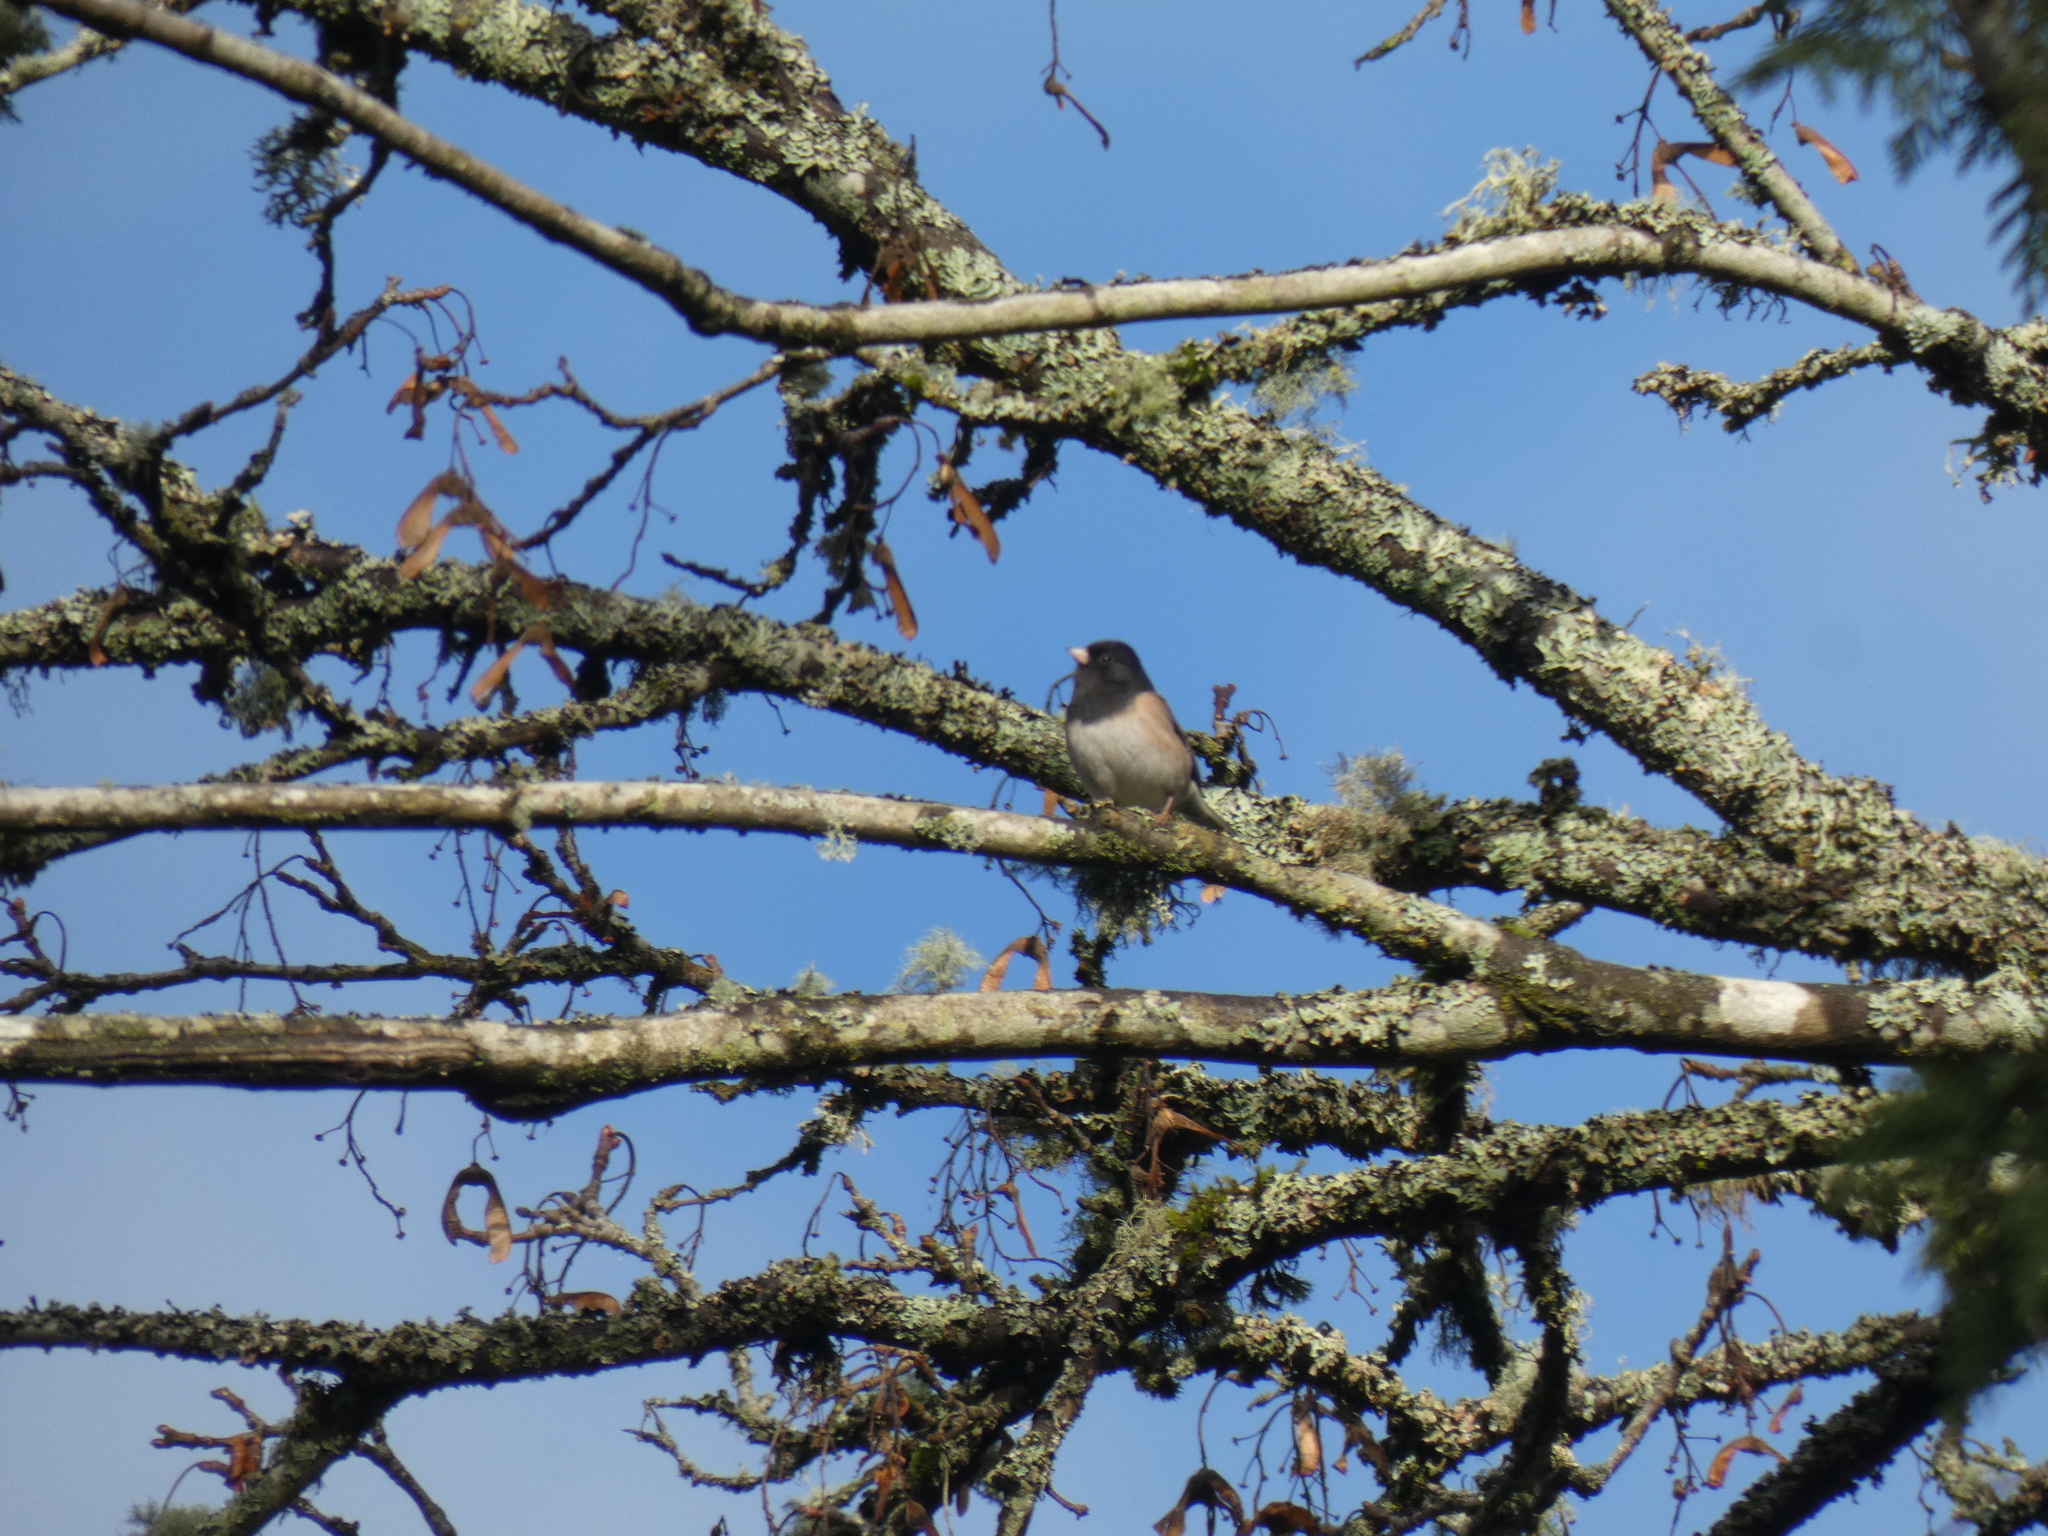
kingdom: Animalia
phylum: Chordata
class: Aves
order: Passeriformes
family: Passerellidae
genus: Junco
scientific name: Junco hyemalis
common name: Dark-eyed junco
